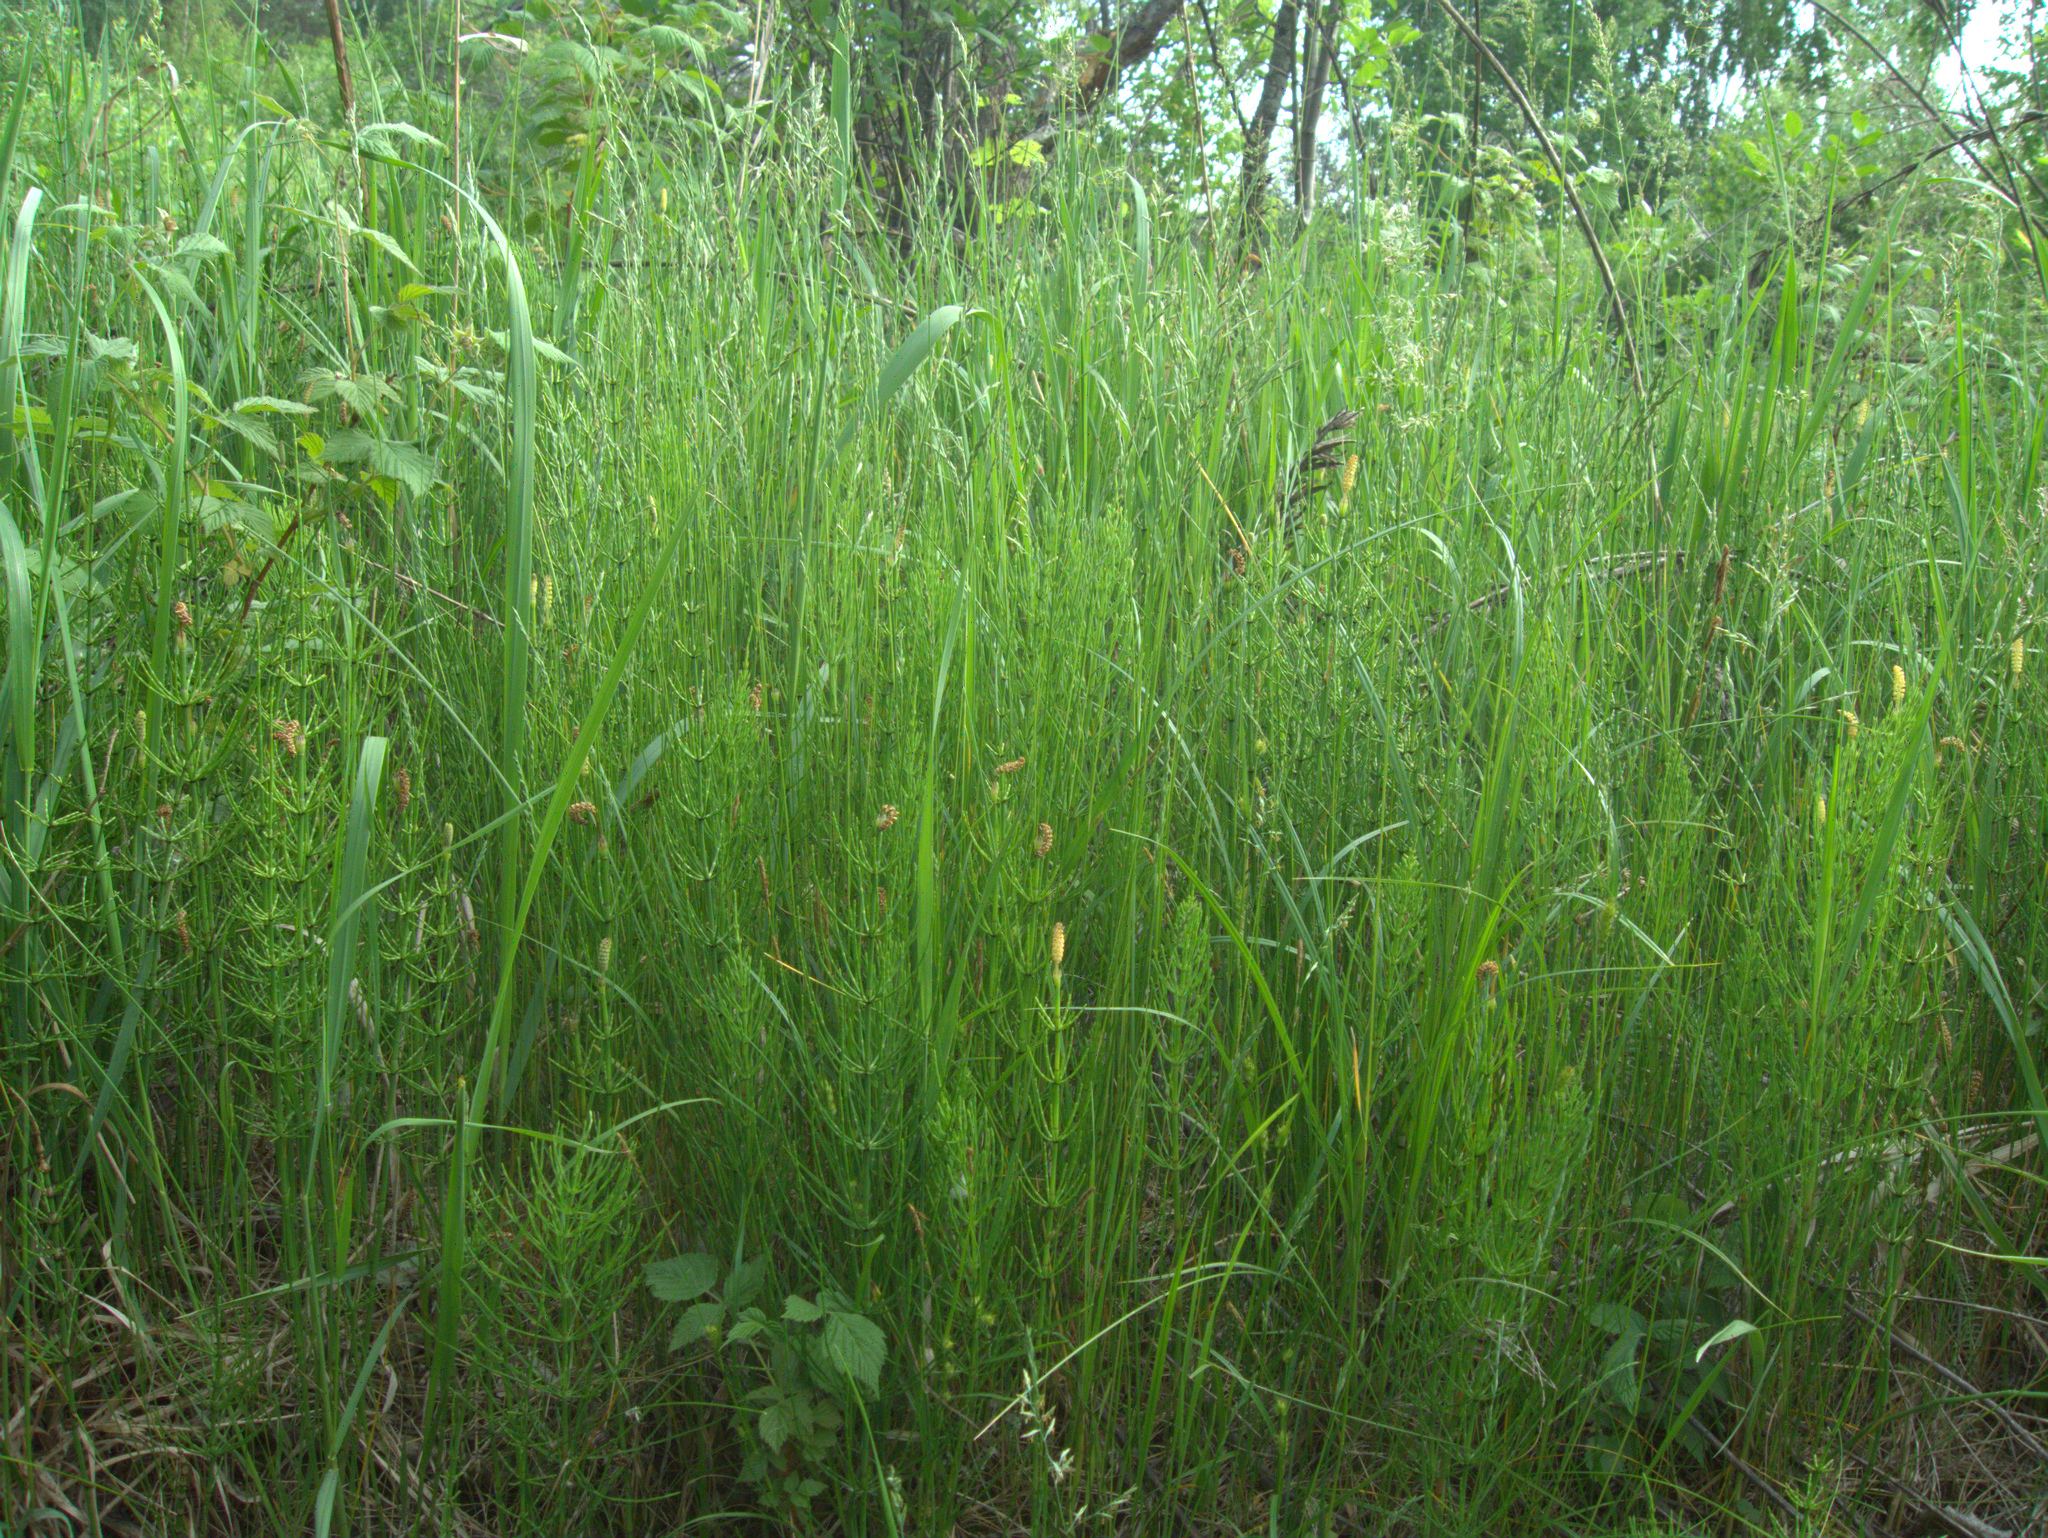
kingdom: Plantae
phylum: Tracheophyta
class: Magnoliopsida
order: Rosales
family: Rosaceae
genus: Rubus
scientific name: Rubus idaeus
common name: Raspberry
